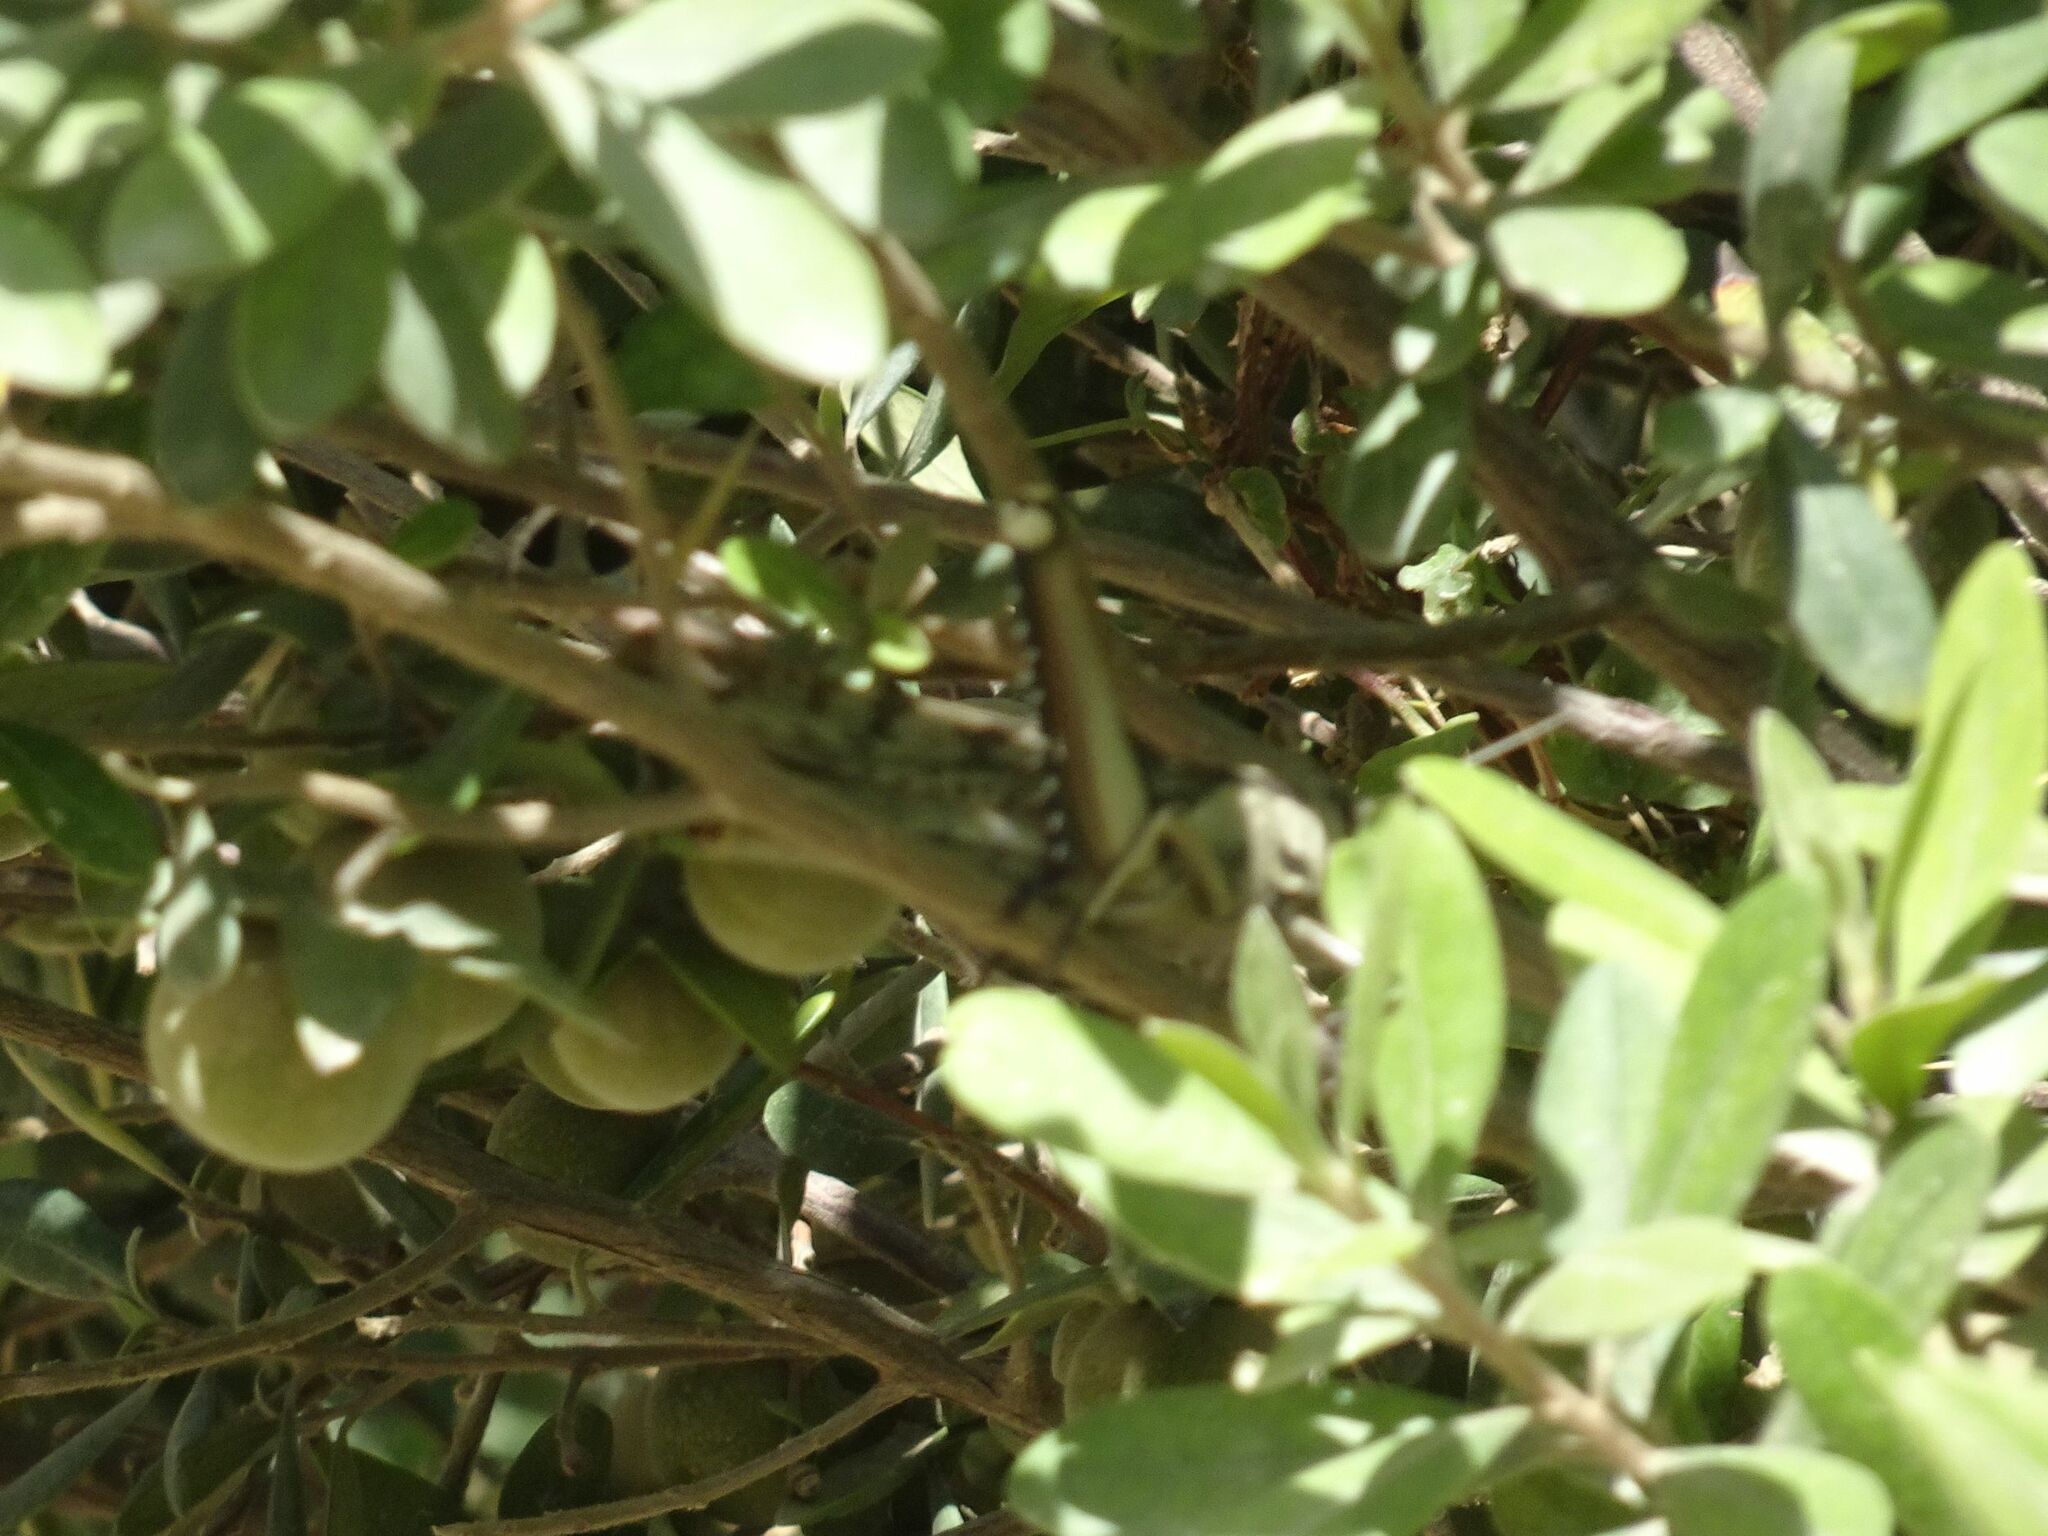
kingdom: Animalia
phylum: Arthropoda
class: Insecta
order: Orthoptera
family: Acrididae
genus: Acanthacris
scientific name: Acanthacris ruficornis
